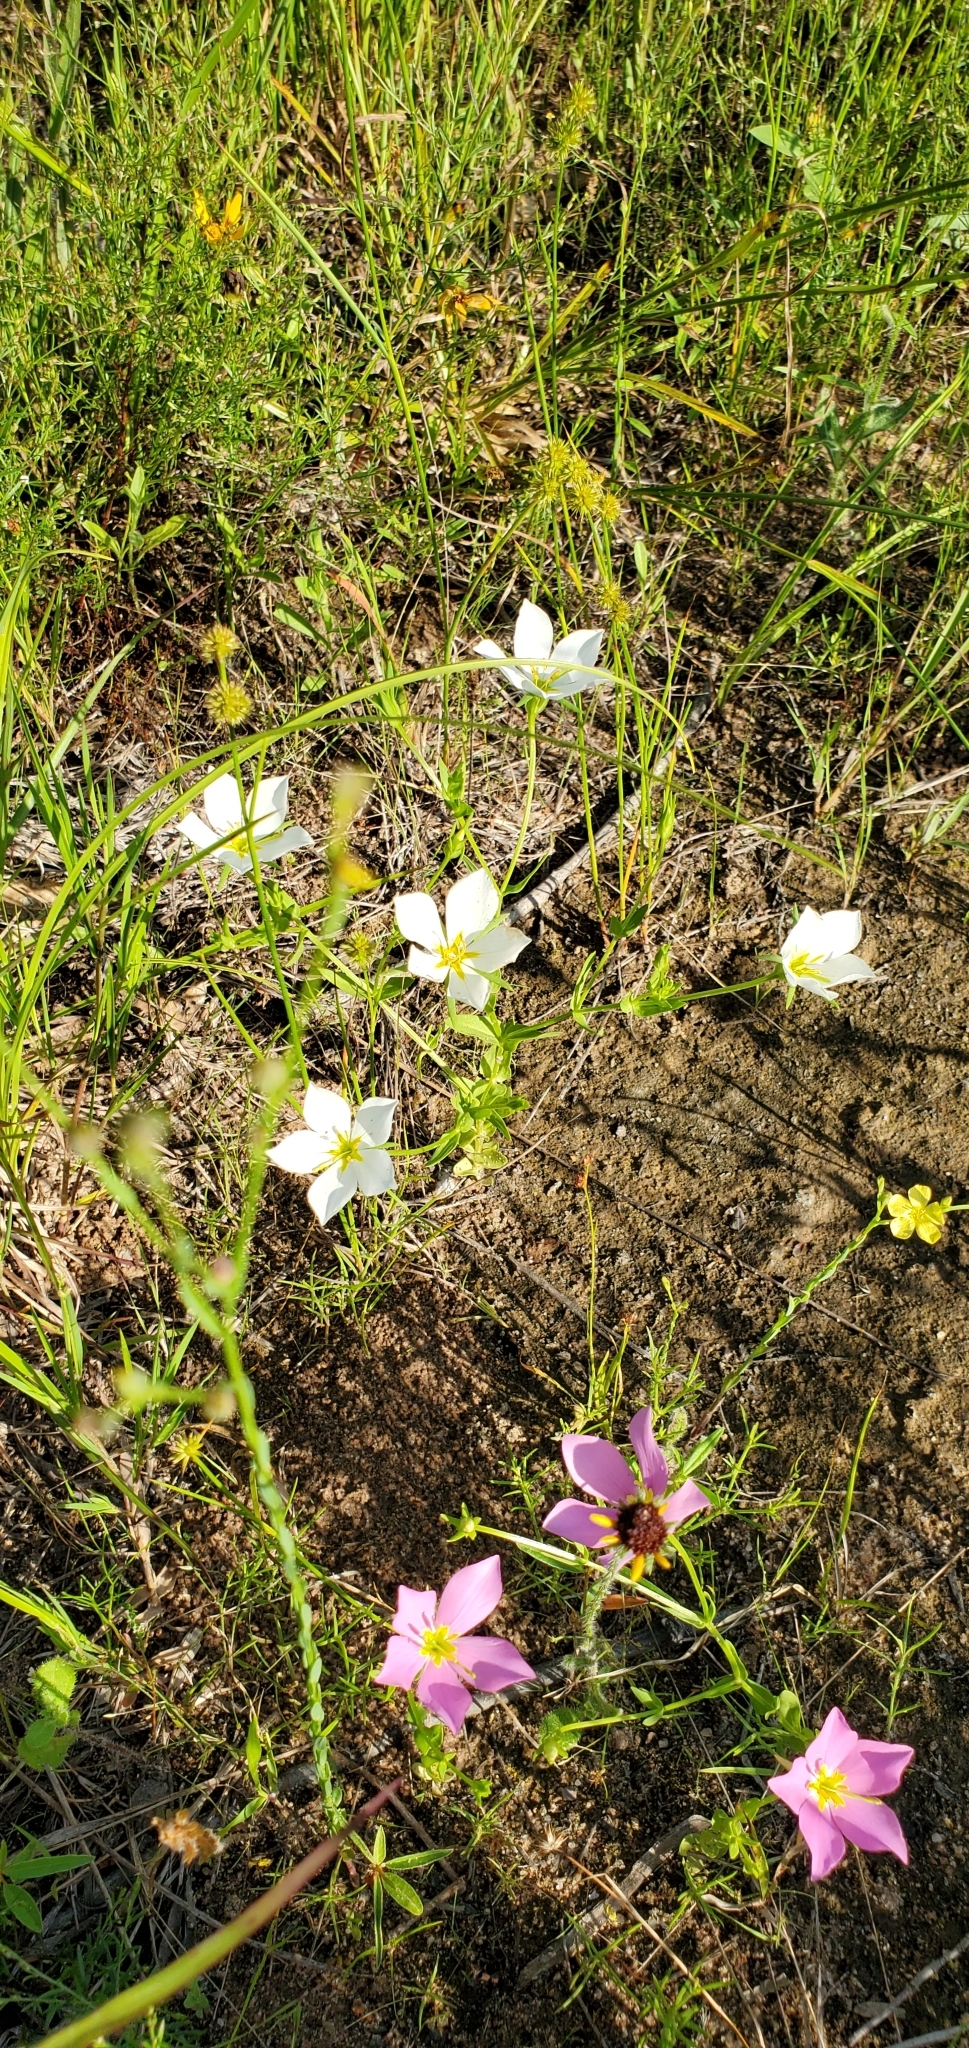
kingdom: Plantae
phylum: Tracheophyta
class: Magnoliopsida
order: Gentianales
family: Gentianaceae
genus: Sabatia
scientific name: Sabatia campestris
